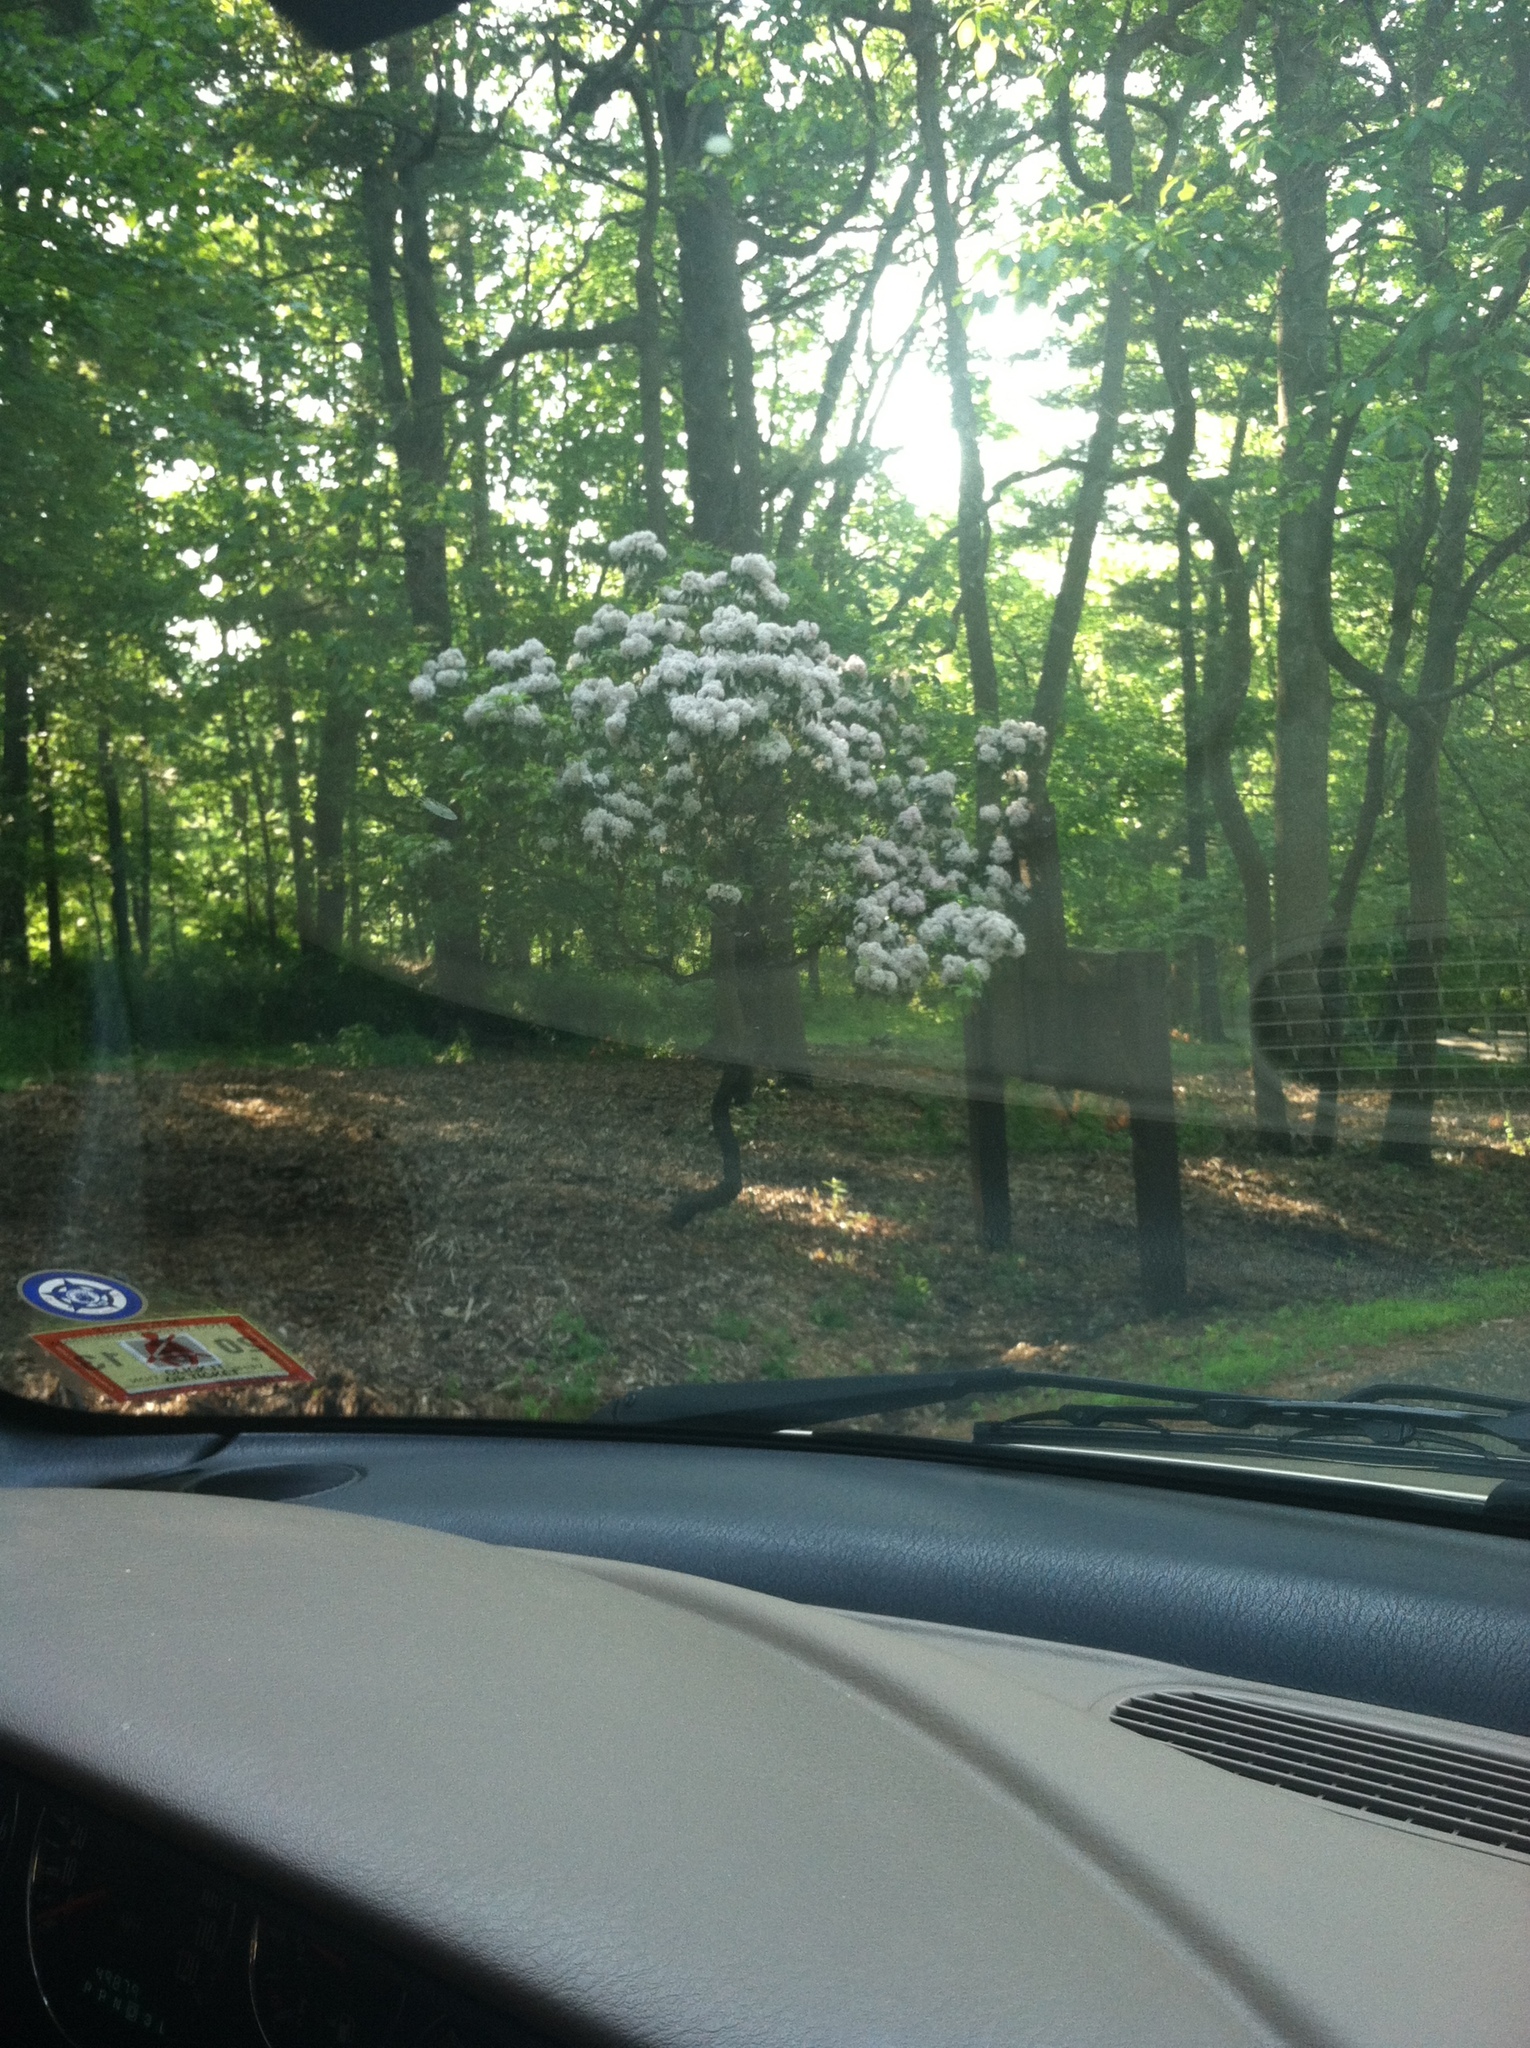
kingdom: Plantae
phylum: Tracheophyta
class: Magnoliopsida
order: Ericales
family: Ericaceae
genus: Kalmia
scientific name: Kalmia latifolia
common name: Mountain-laurel
